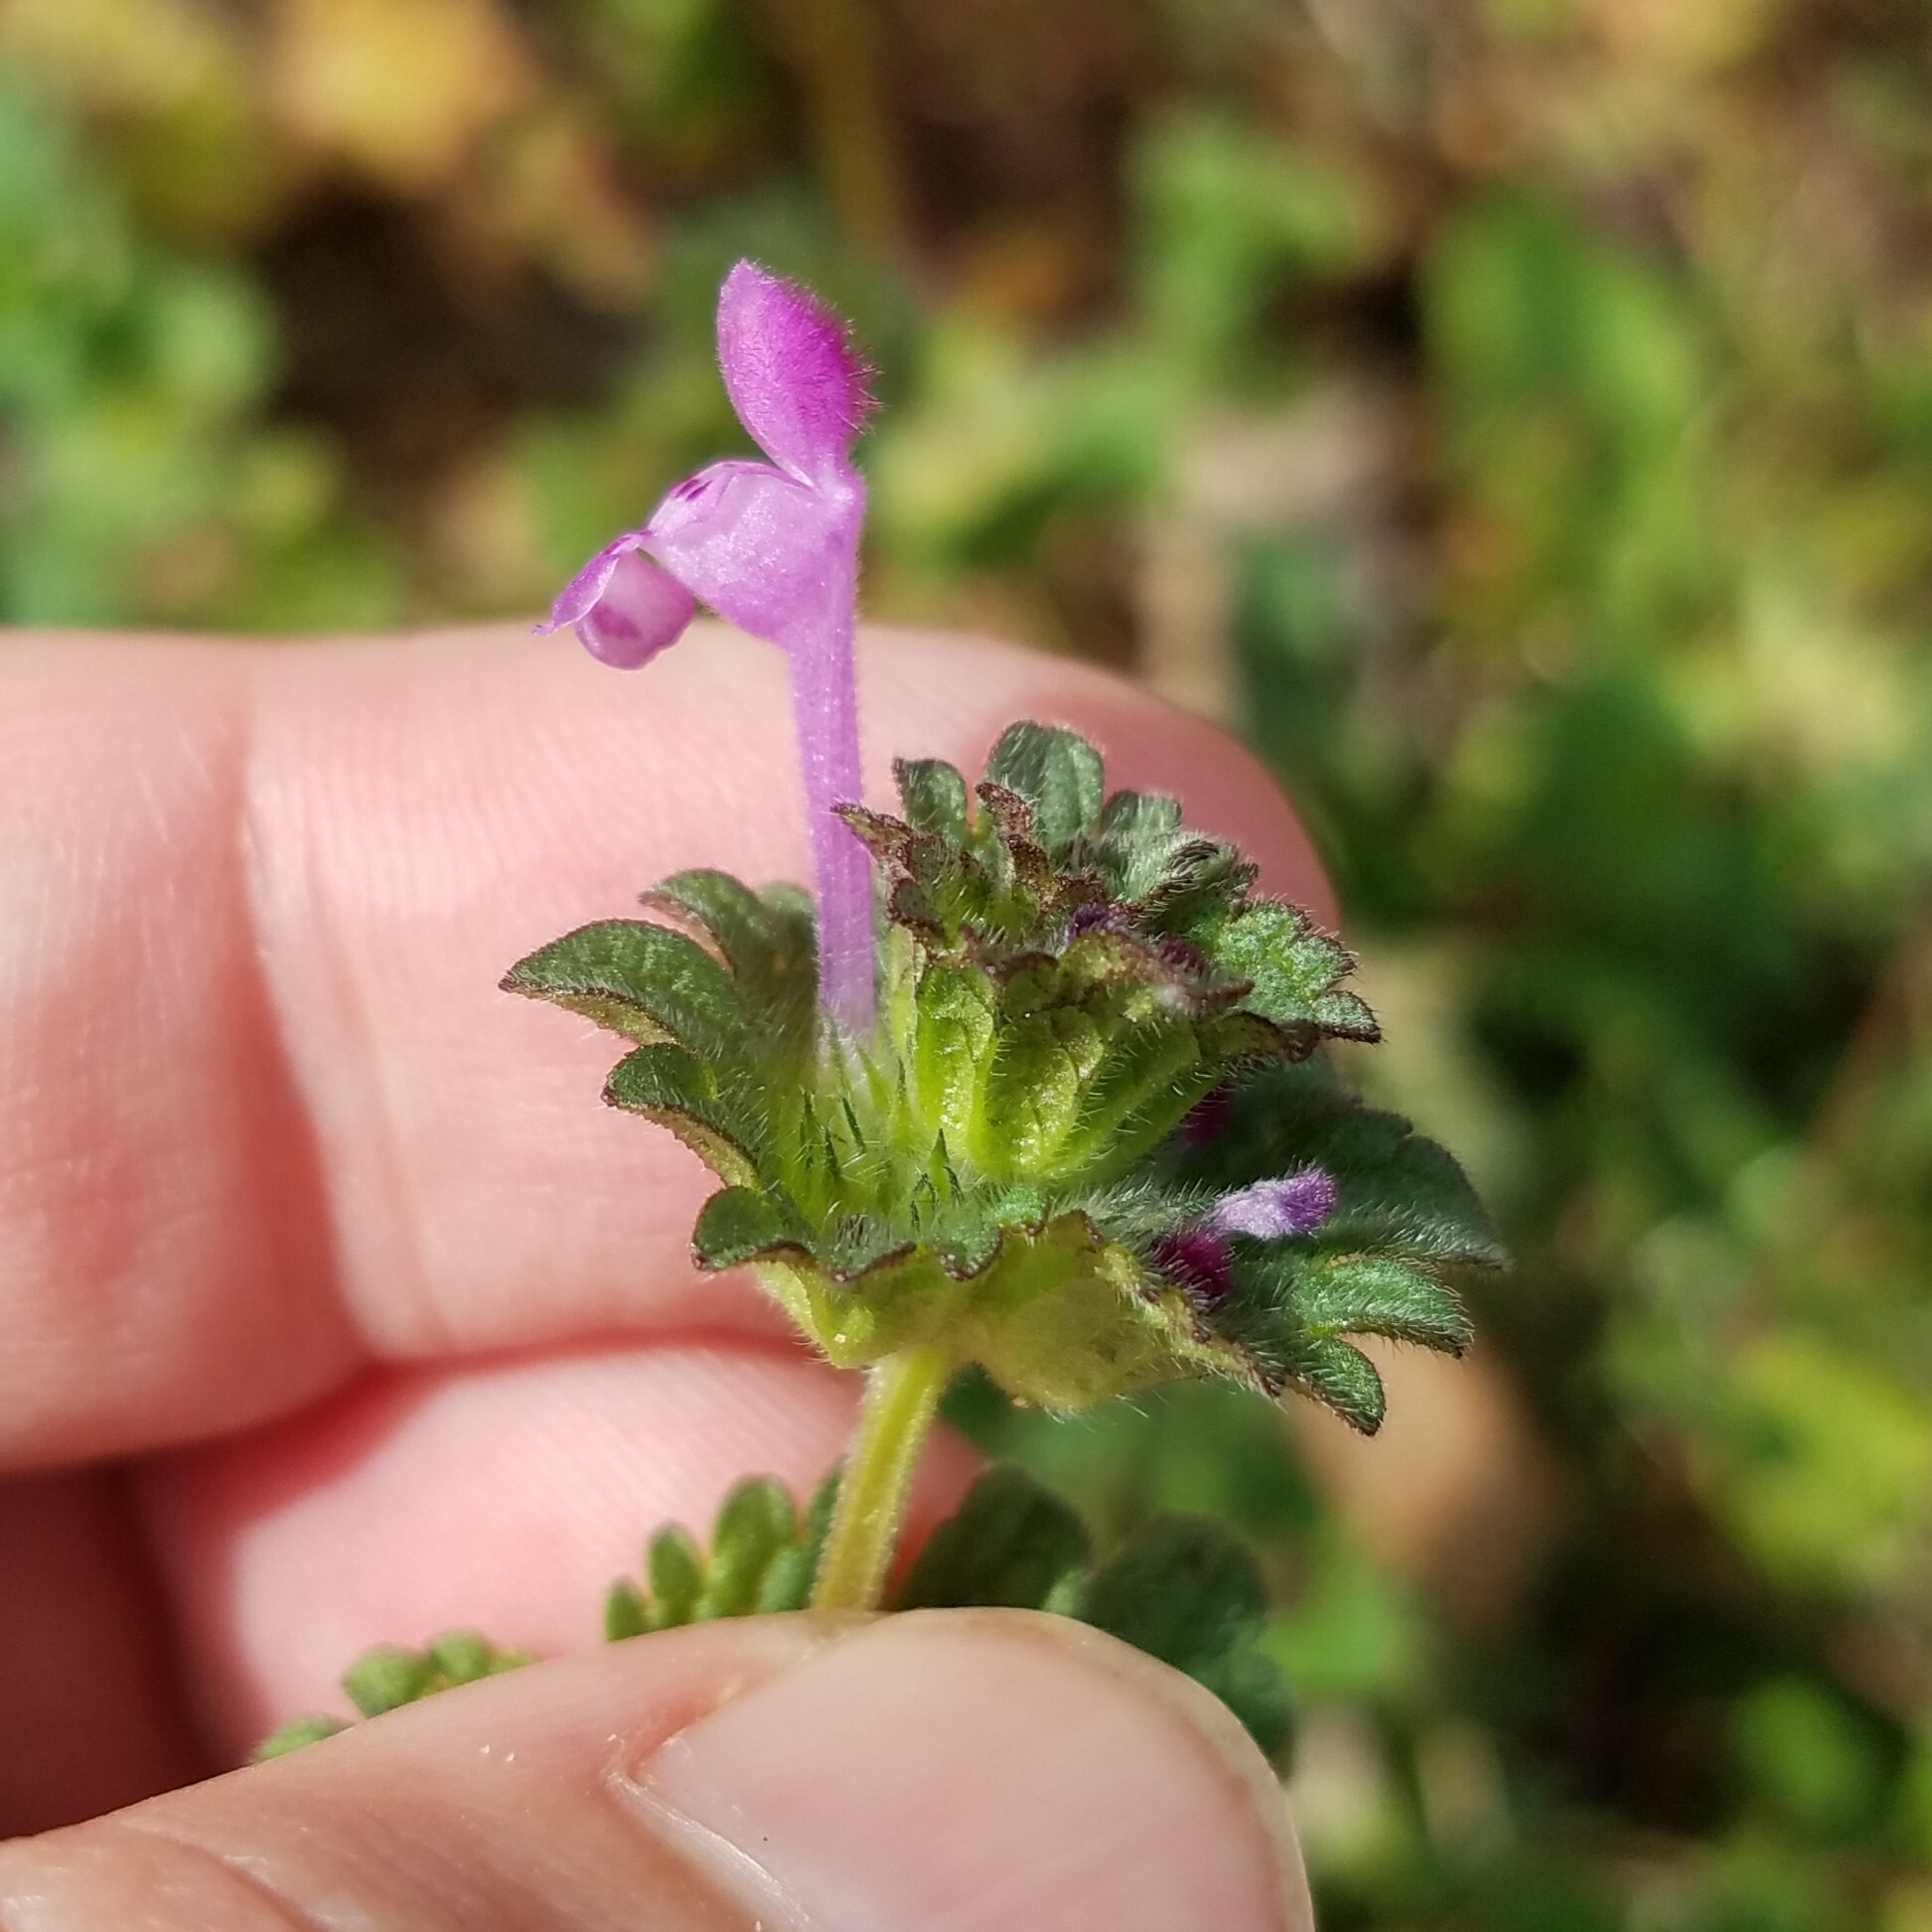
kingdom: Plantae
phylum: Tracheophyta
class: Magnoliopsida
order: Lamiales
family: Lamiaceae
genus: Lamium
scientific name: Lamium amplexicaule
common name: Henbit dead-nettle
